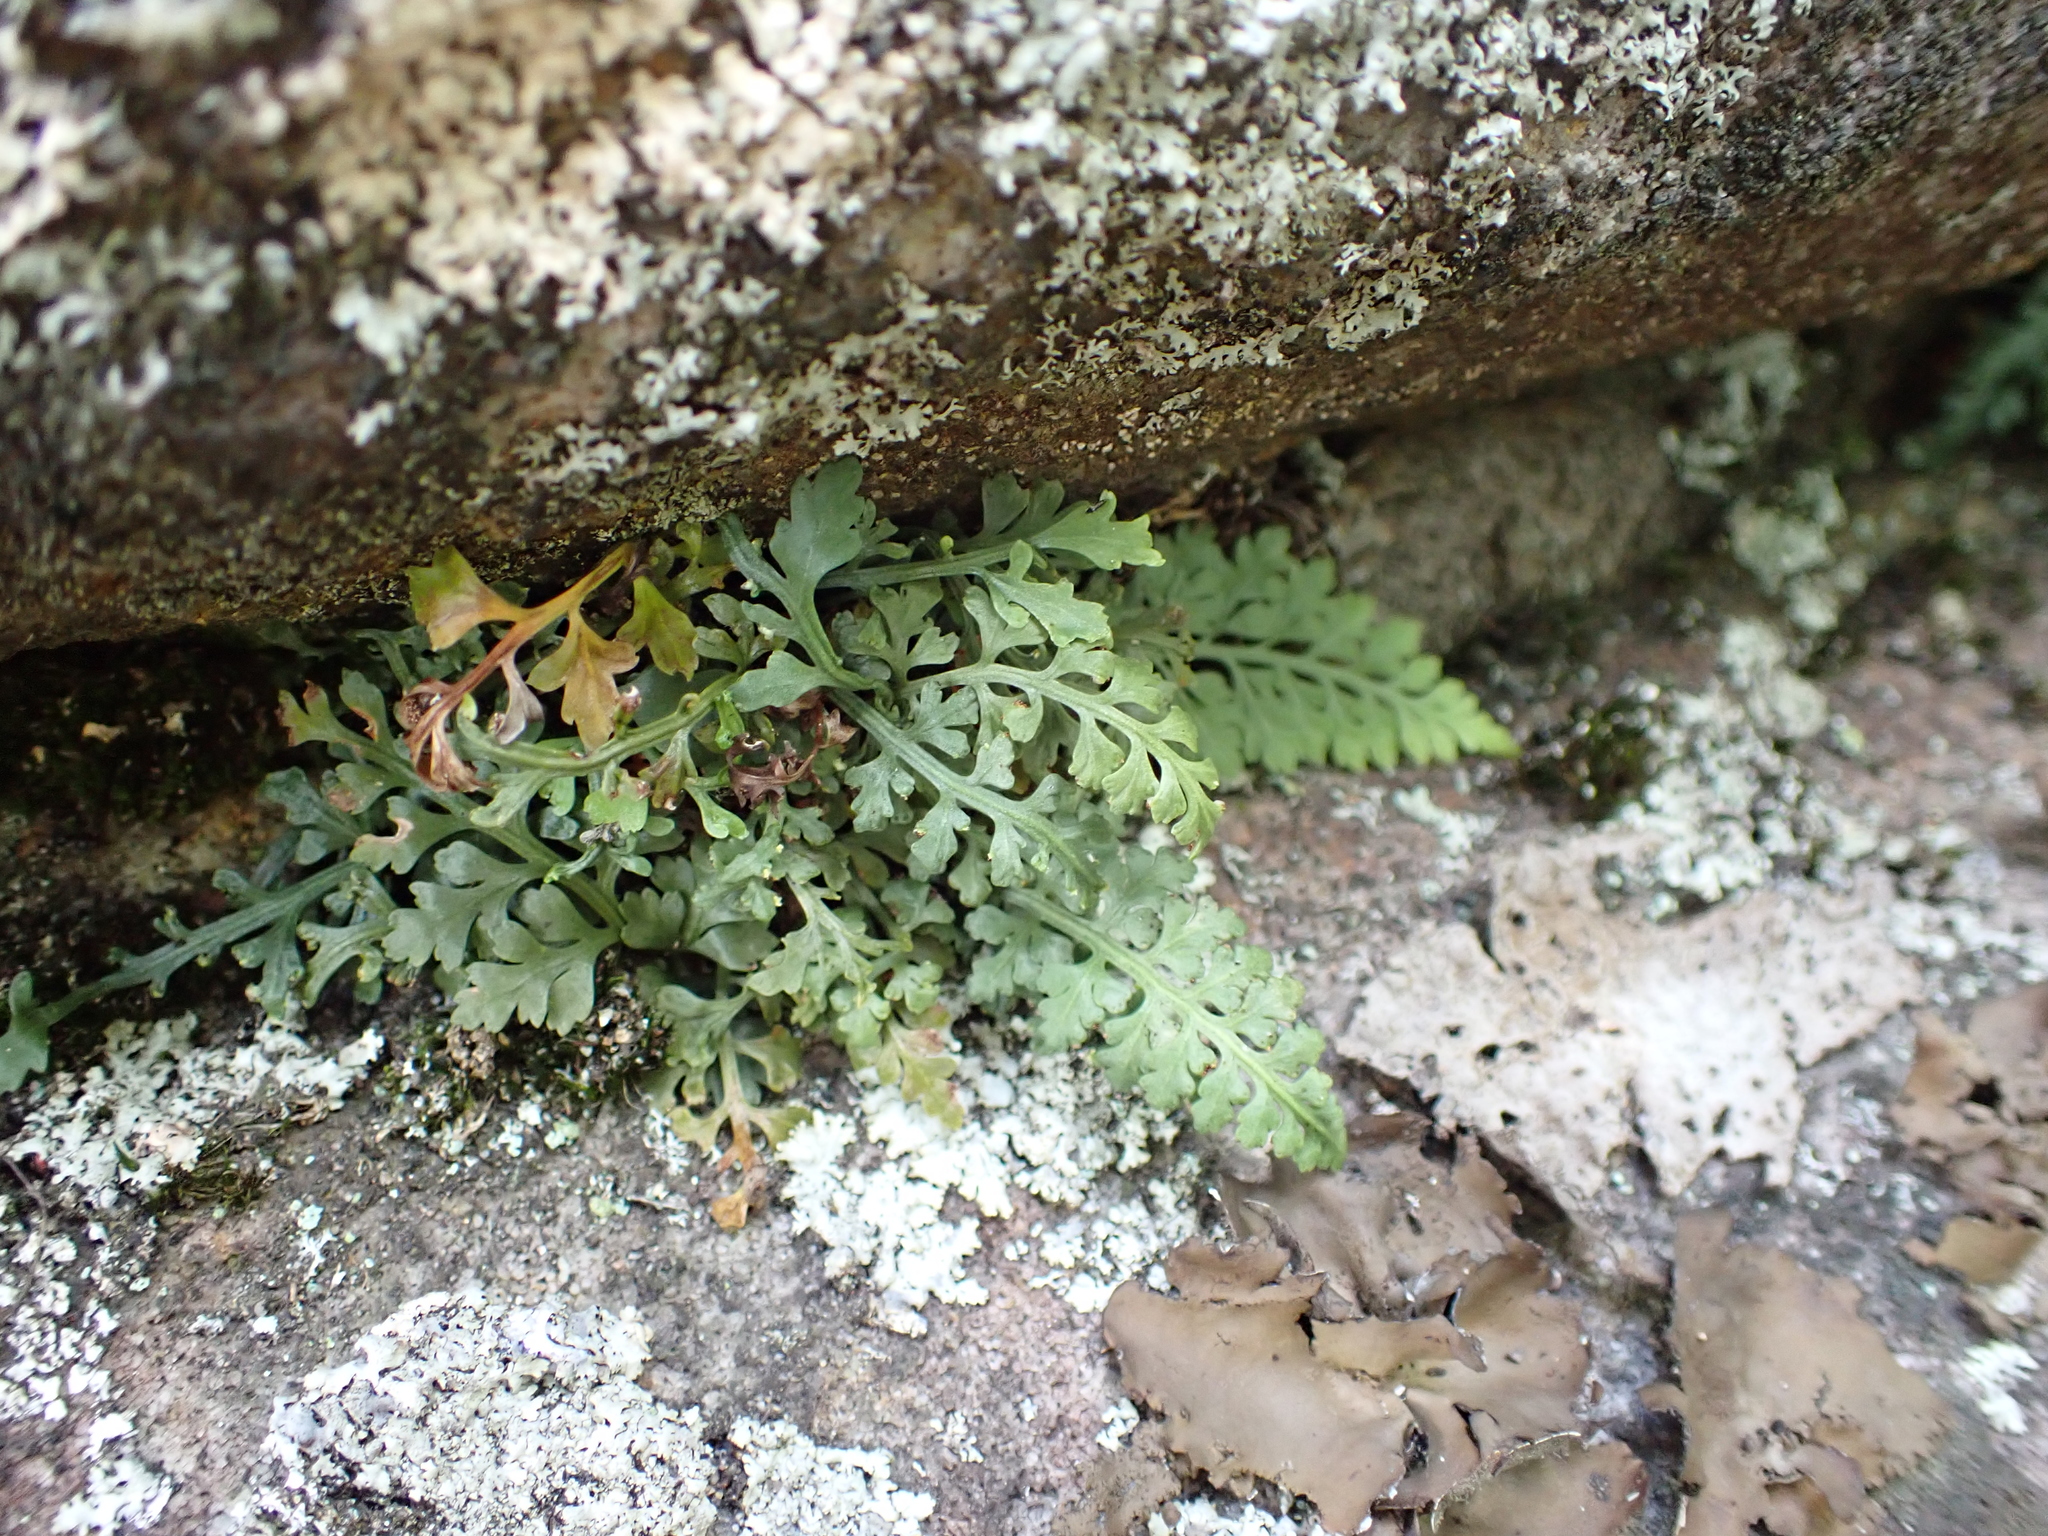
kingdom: Plantae
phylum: Tracheophyta
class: Polypodiopsida
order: Polypodiales
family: Aspleniaceae
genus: Asplenium
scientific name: Asplenium montanum
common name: Mountain spleenwort
